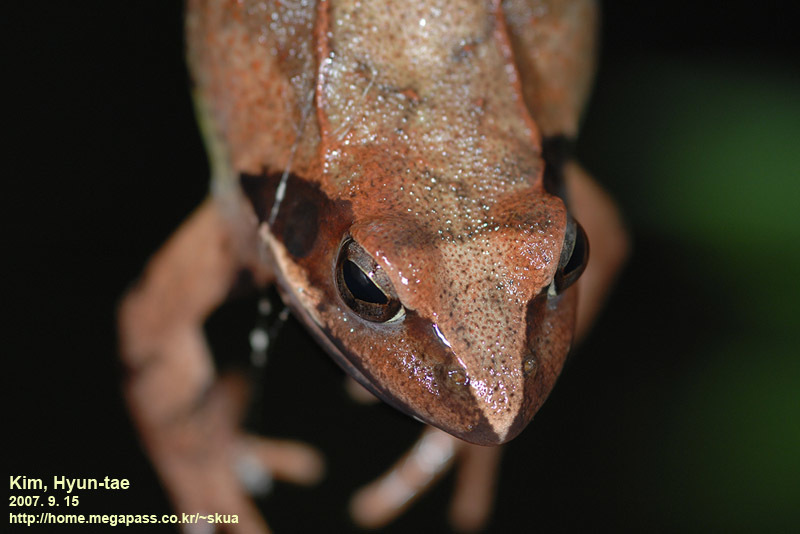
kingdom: Animalia
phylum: Chordata
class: Amphibia
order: Anura
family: Ranidae
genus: Rana
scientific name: Rana uenoi
